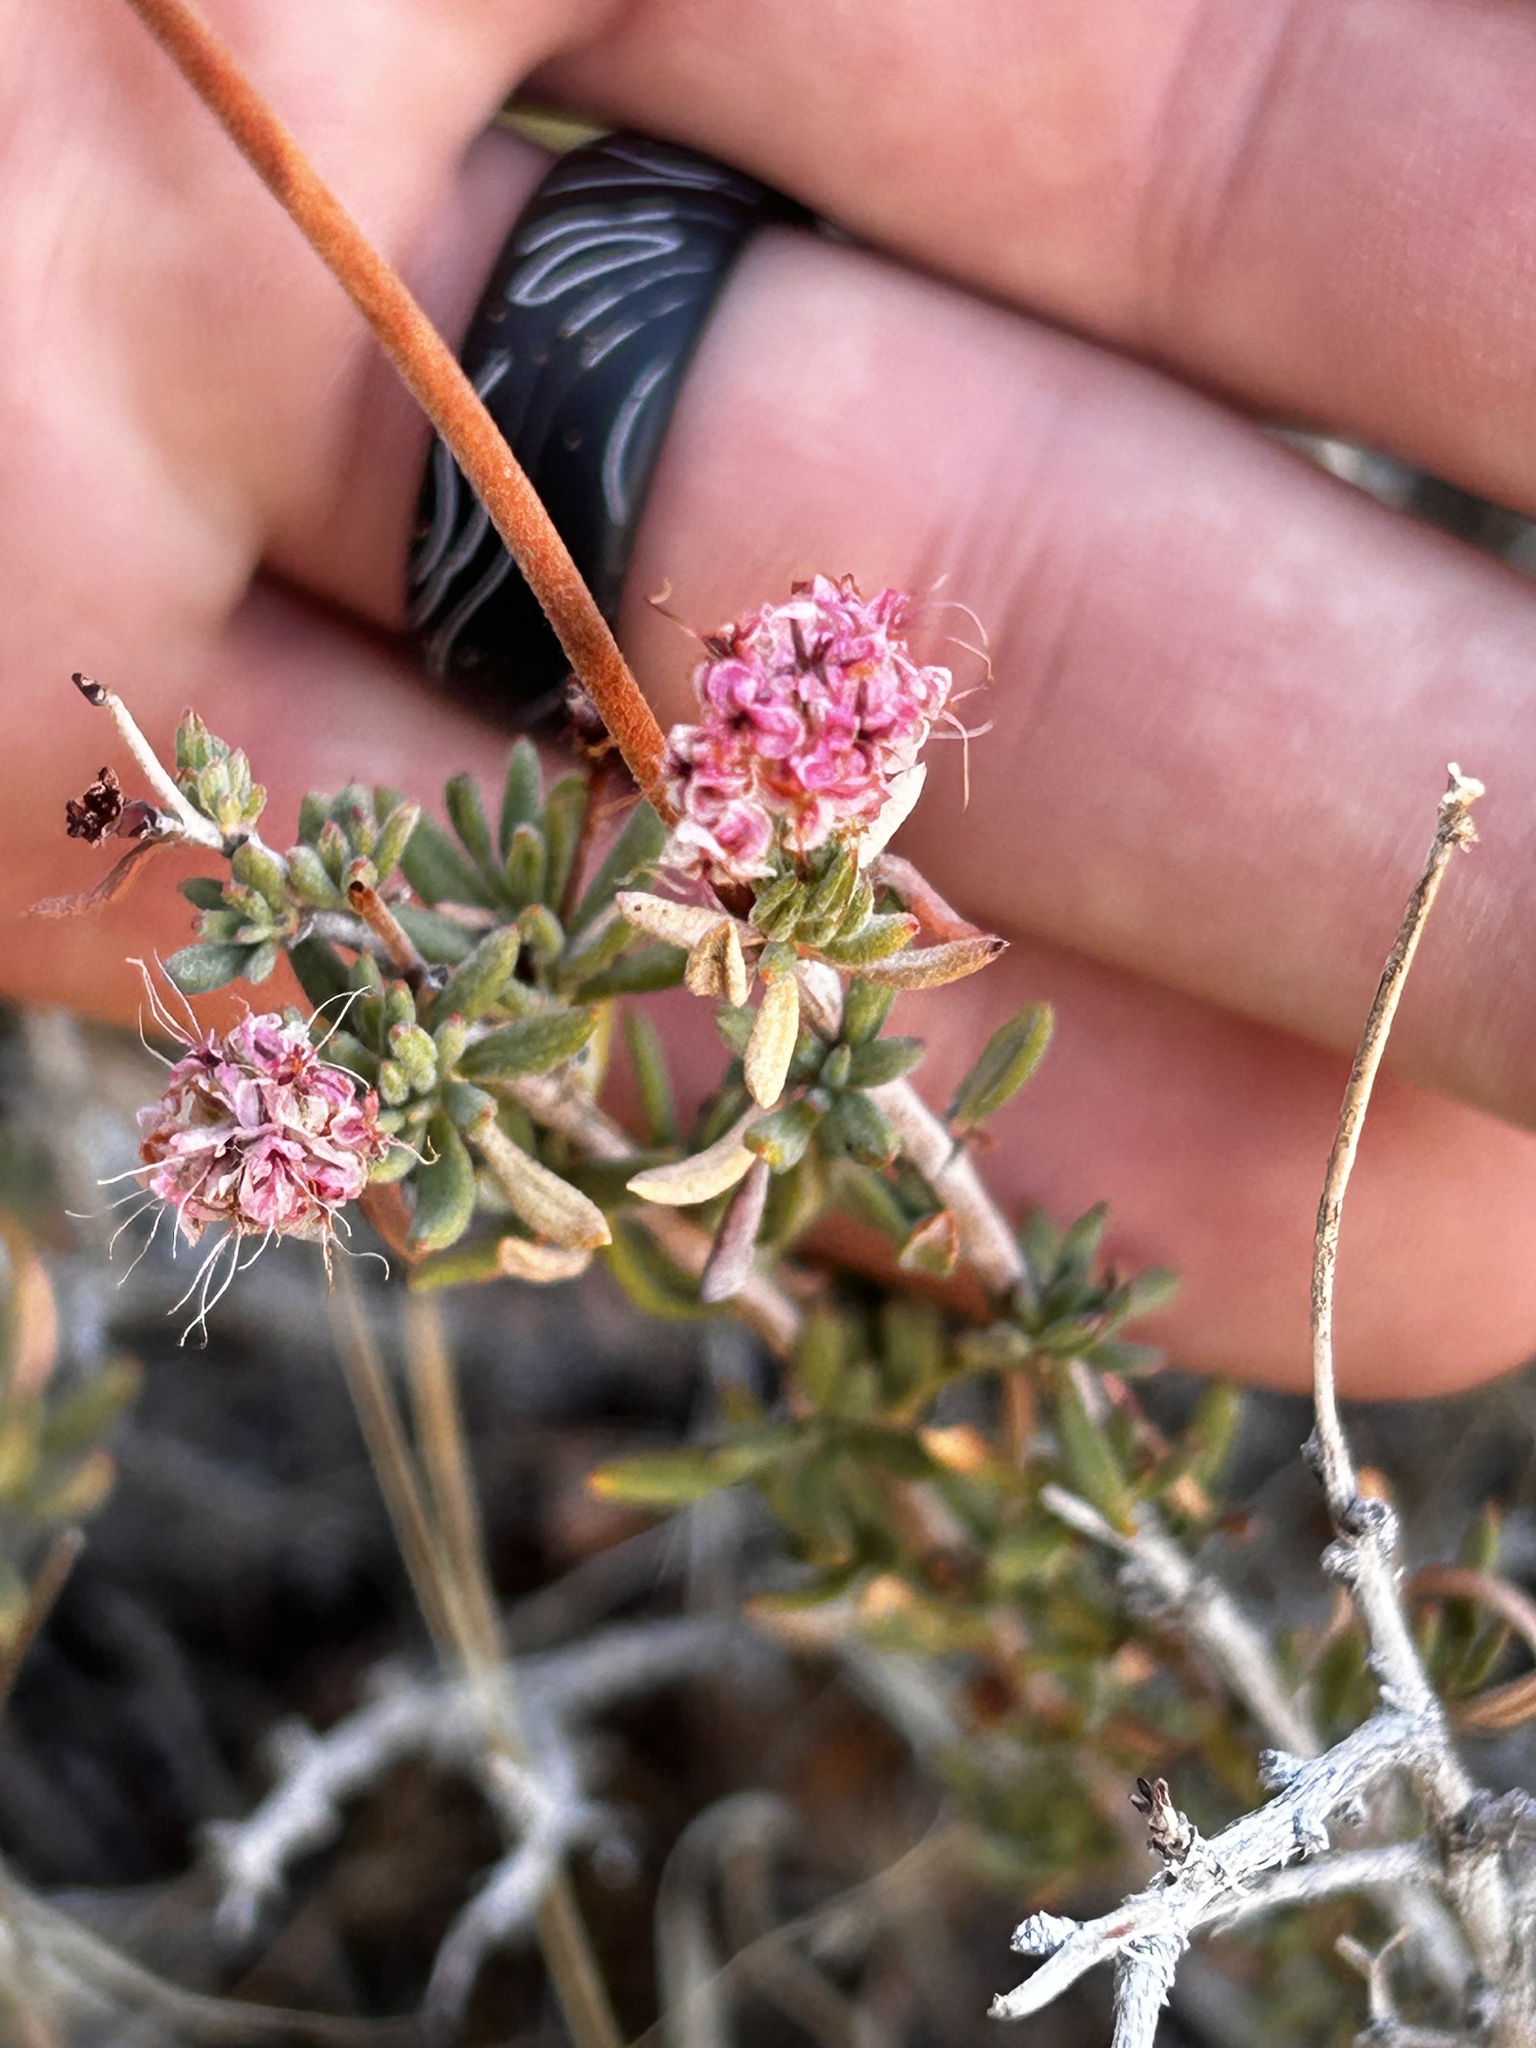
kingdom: Plantae
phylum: Tracheophyta
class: Magnoliopsida
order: Caryophyllales
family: Polygonaceae
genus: Eriogonum
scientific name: Eriogonum fasciculatum
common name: California wild buckwheat
